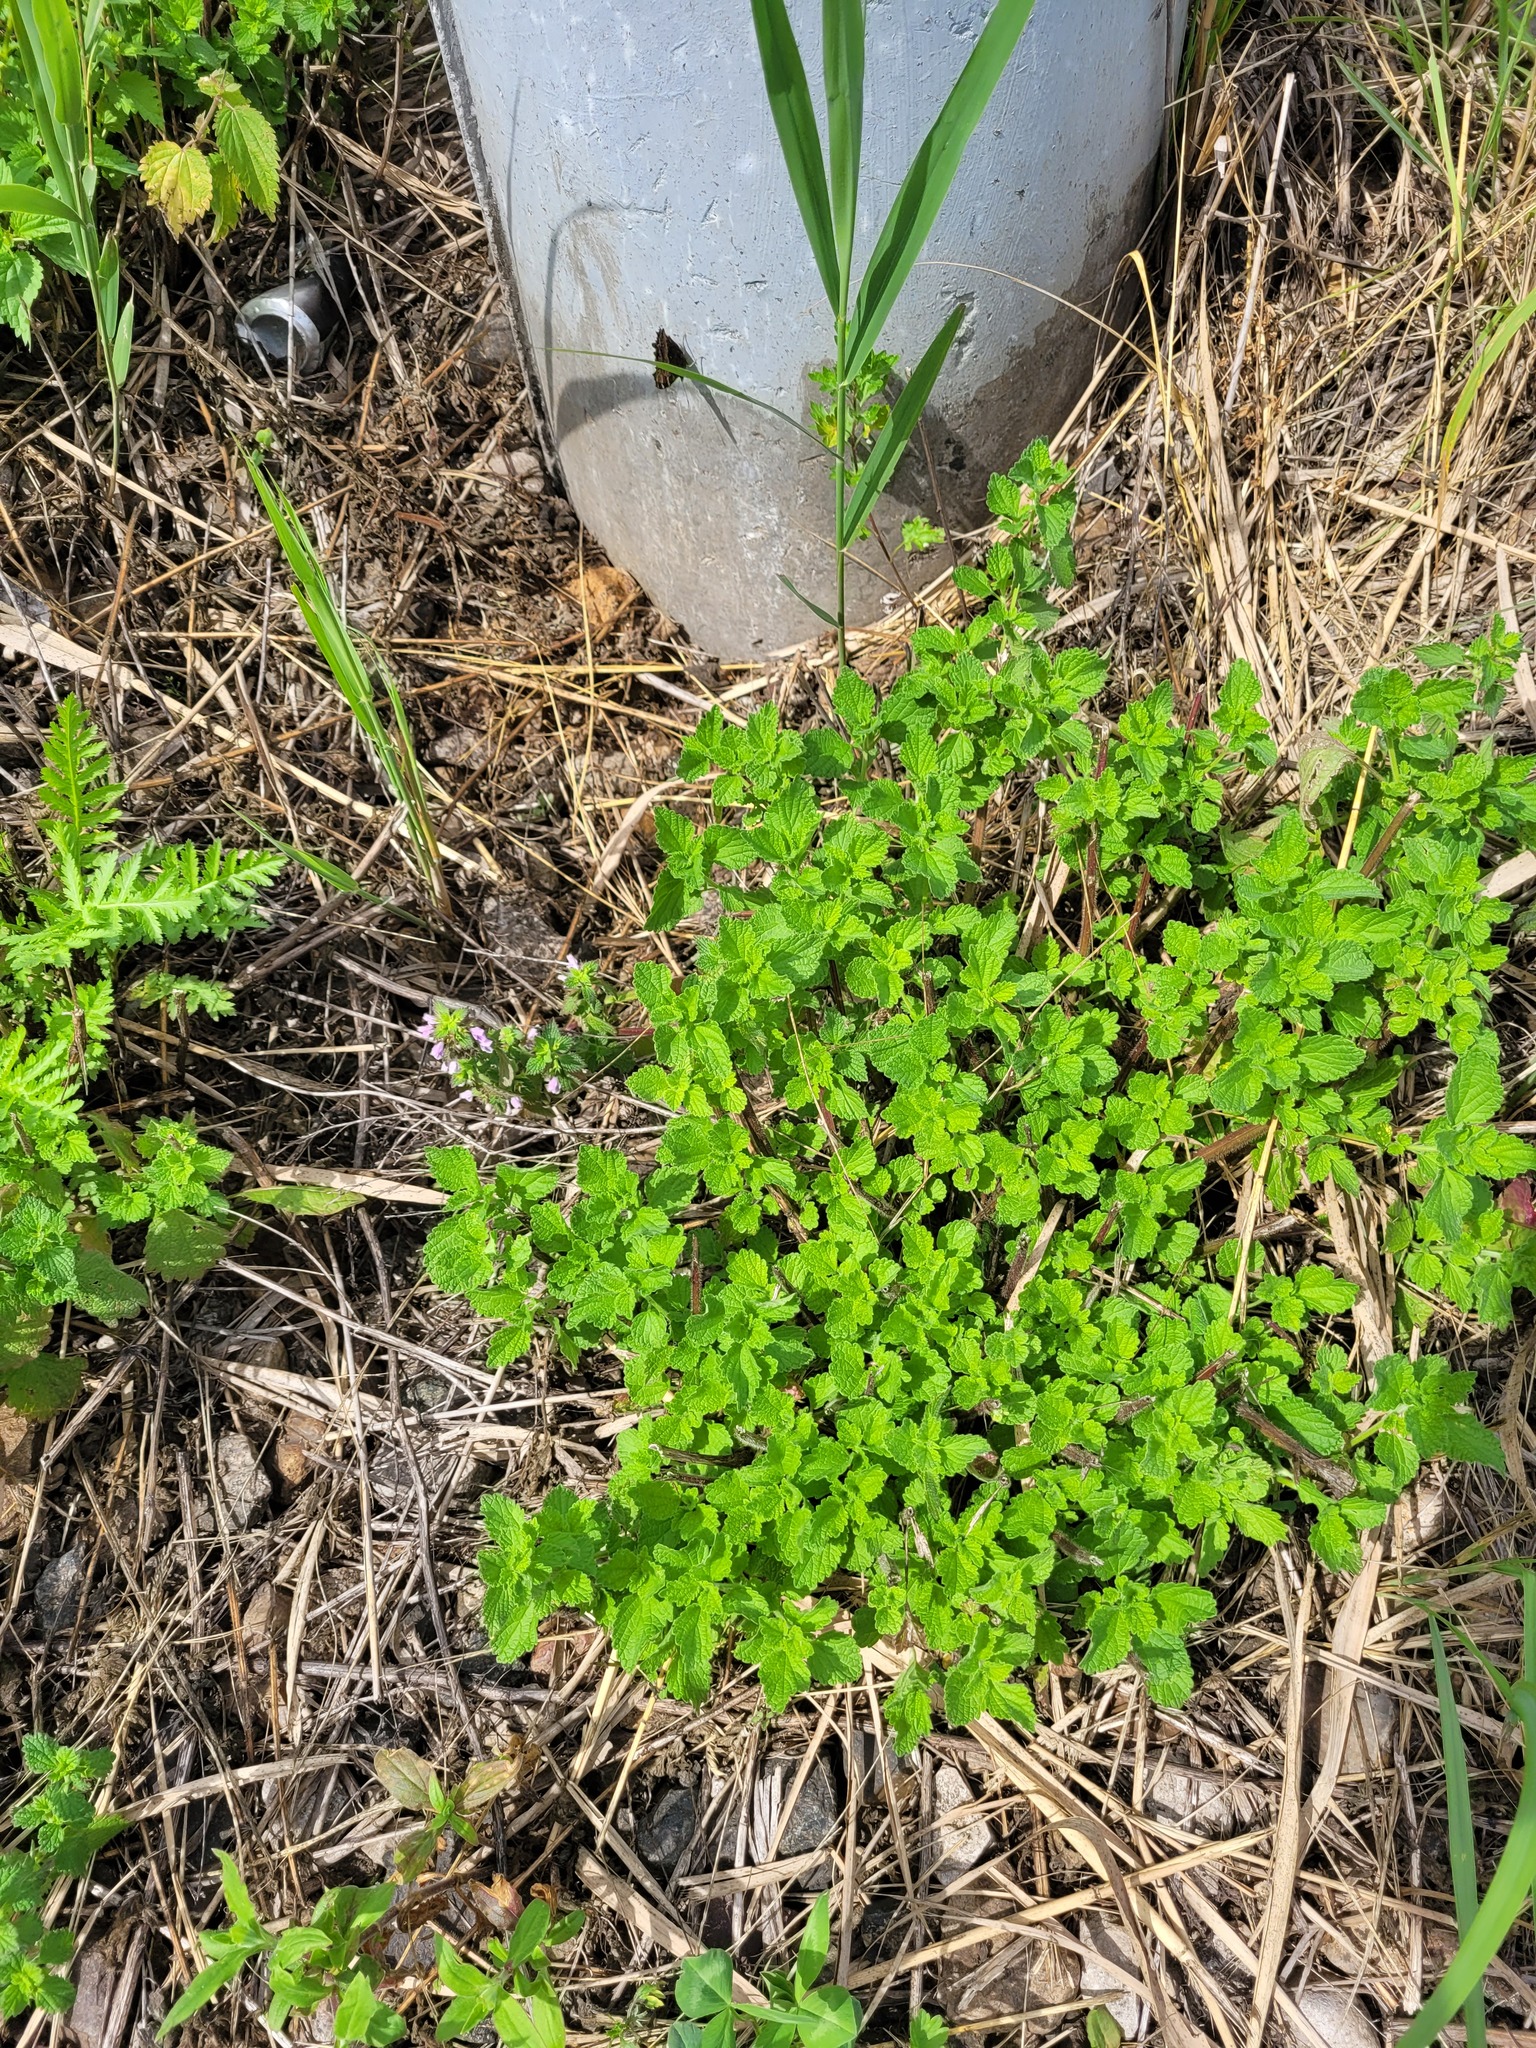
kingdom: Plantae
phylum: Tracheophyta
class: Magnoliopsida
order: Lamiales
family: Lamiaceae
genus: Ballota
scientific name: Ballota nigra
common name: Black horehound
